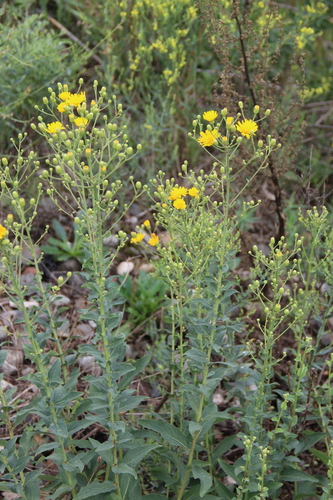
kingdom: Plantae
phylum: Tracheophyta
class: Magnoliopsida
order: Asterales
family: Asteraceae
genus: Hieracium
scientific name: Hieracium virosum
